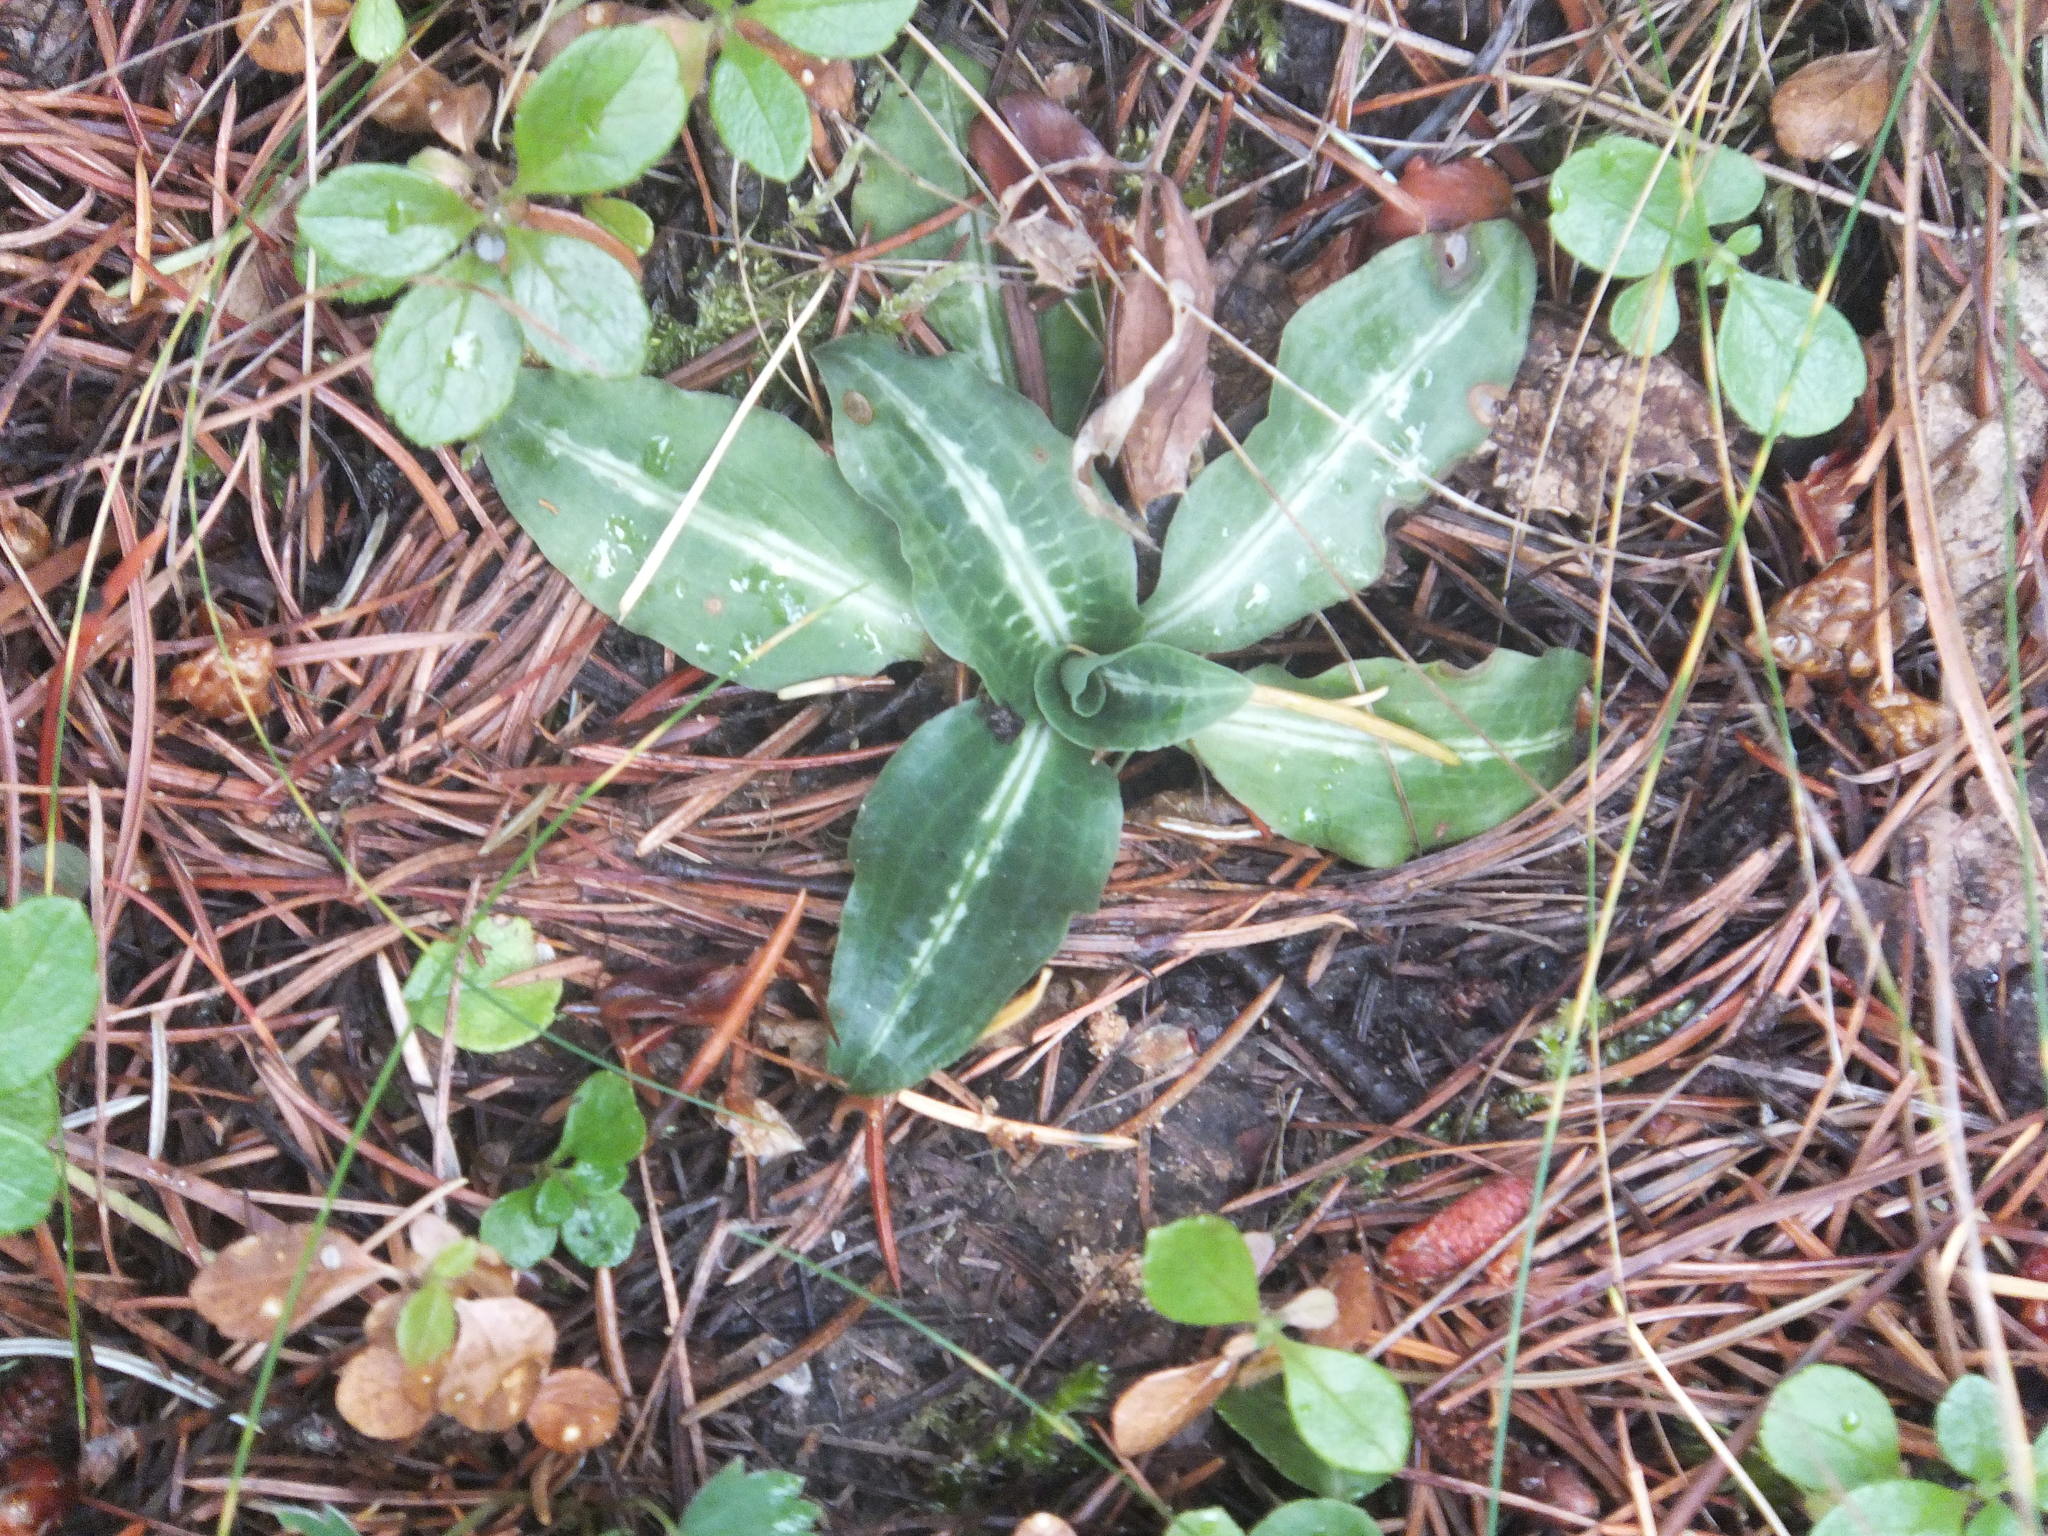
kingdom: Plantae
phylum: Tracheophyta
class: Liliopsida
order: Asparagales
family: Orchidaceae
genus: Goodyera
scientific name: Goodyera oblongifolia
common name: Giant rattlesnake-plantain
